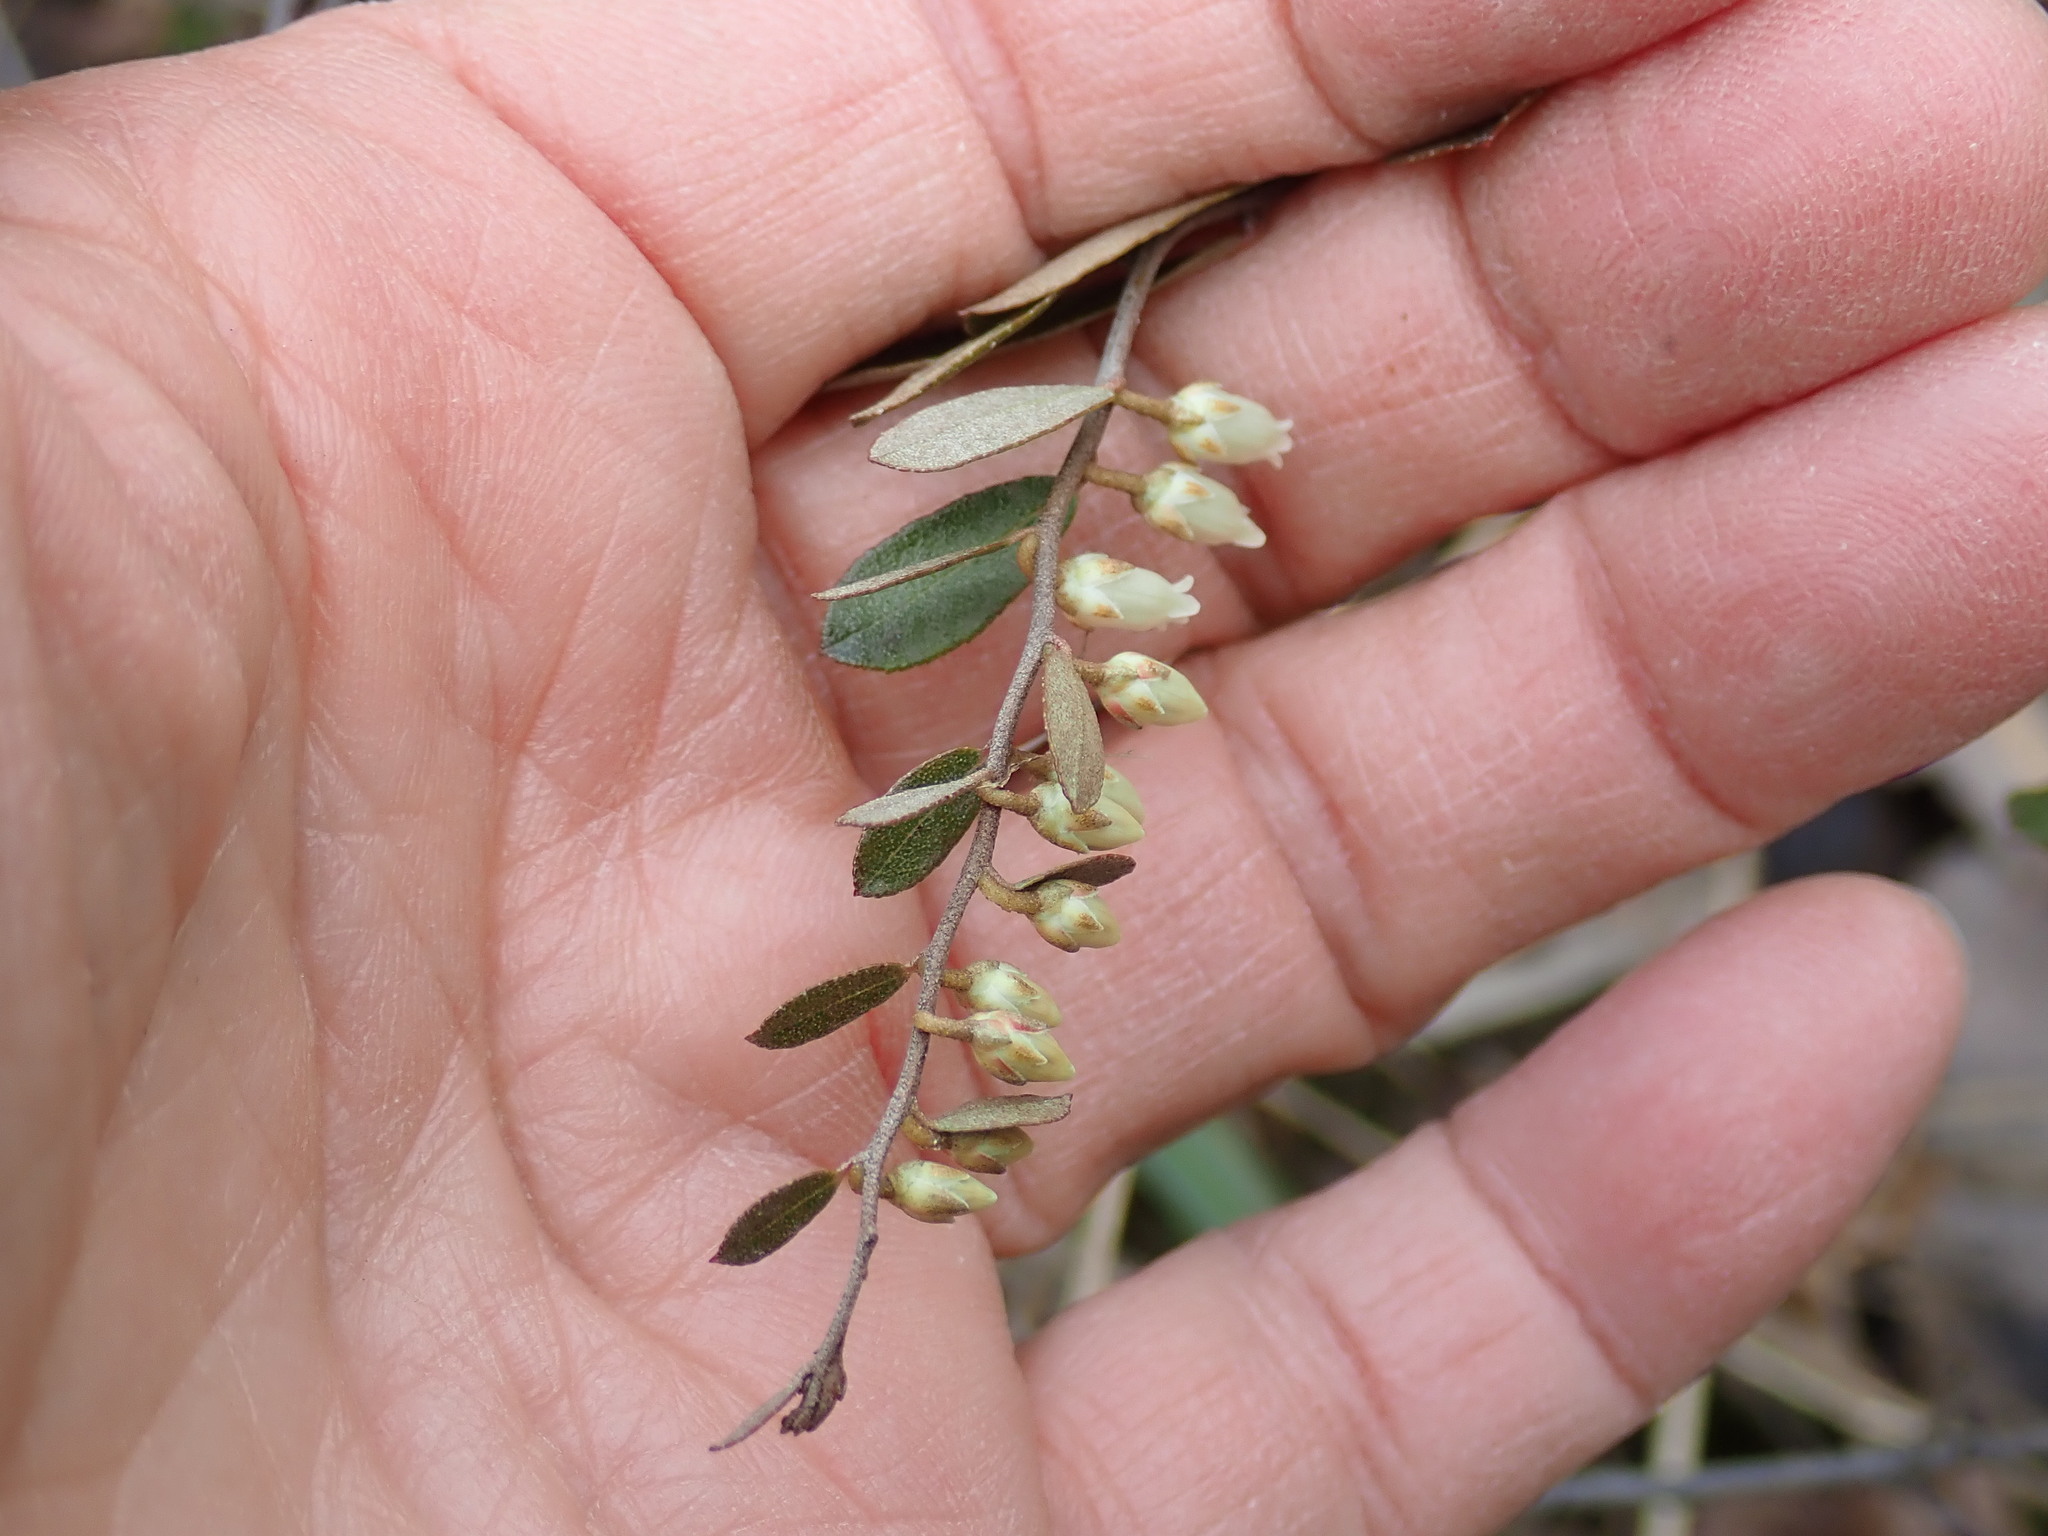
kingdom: Plantae
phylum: Tracheophyta
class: Magnoliopsida
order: Ericales
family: Ericaceae
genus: Chamaedaphne
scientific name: Chamaedaphne calyculata
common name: Leatherleaf
